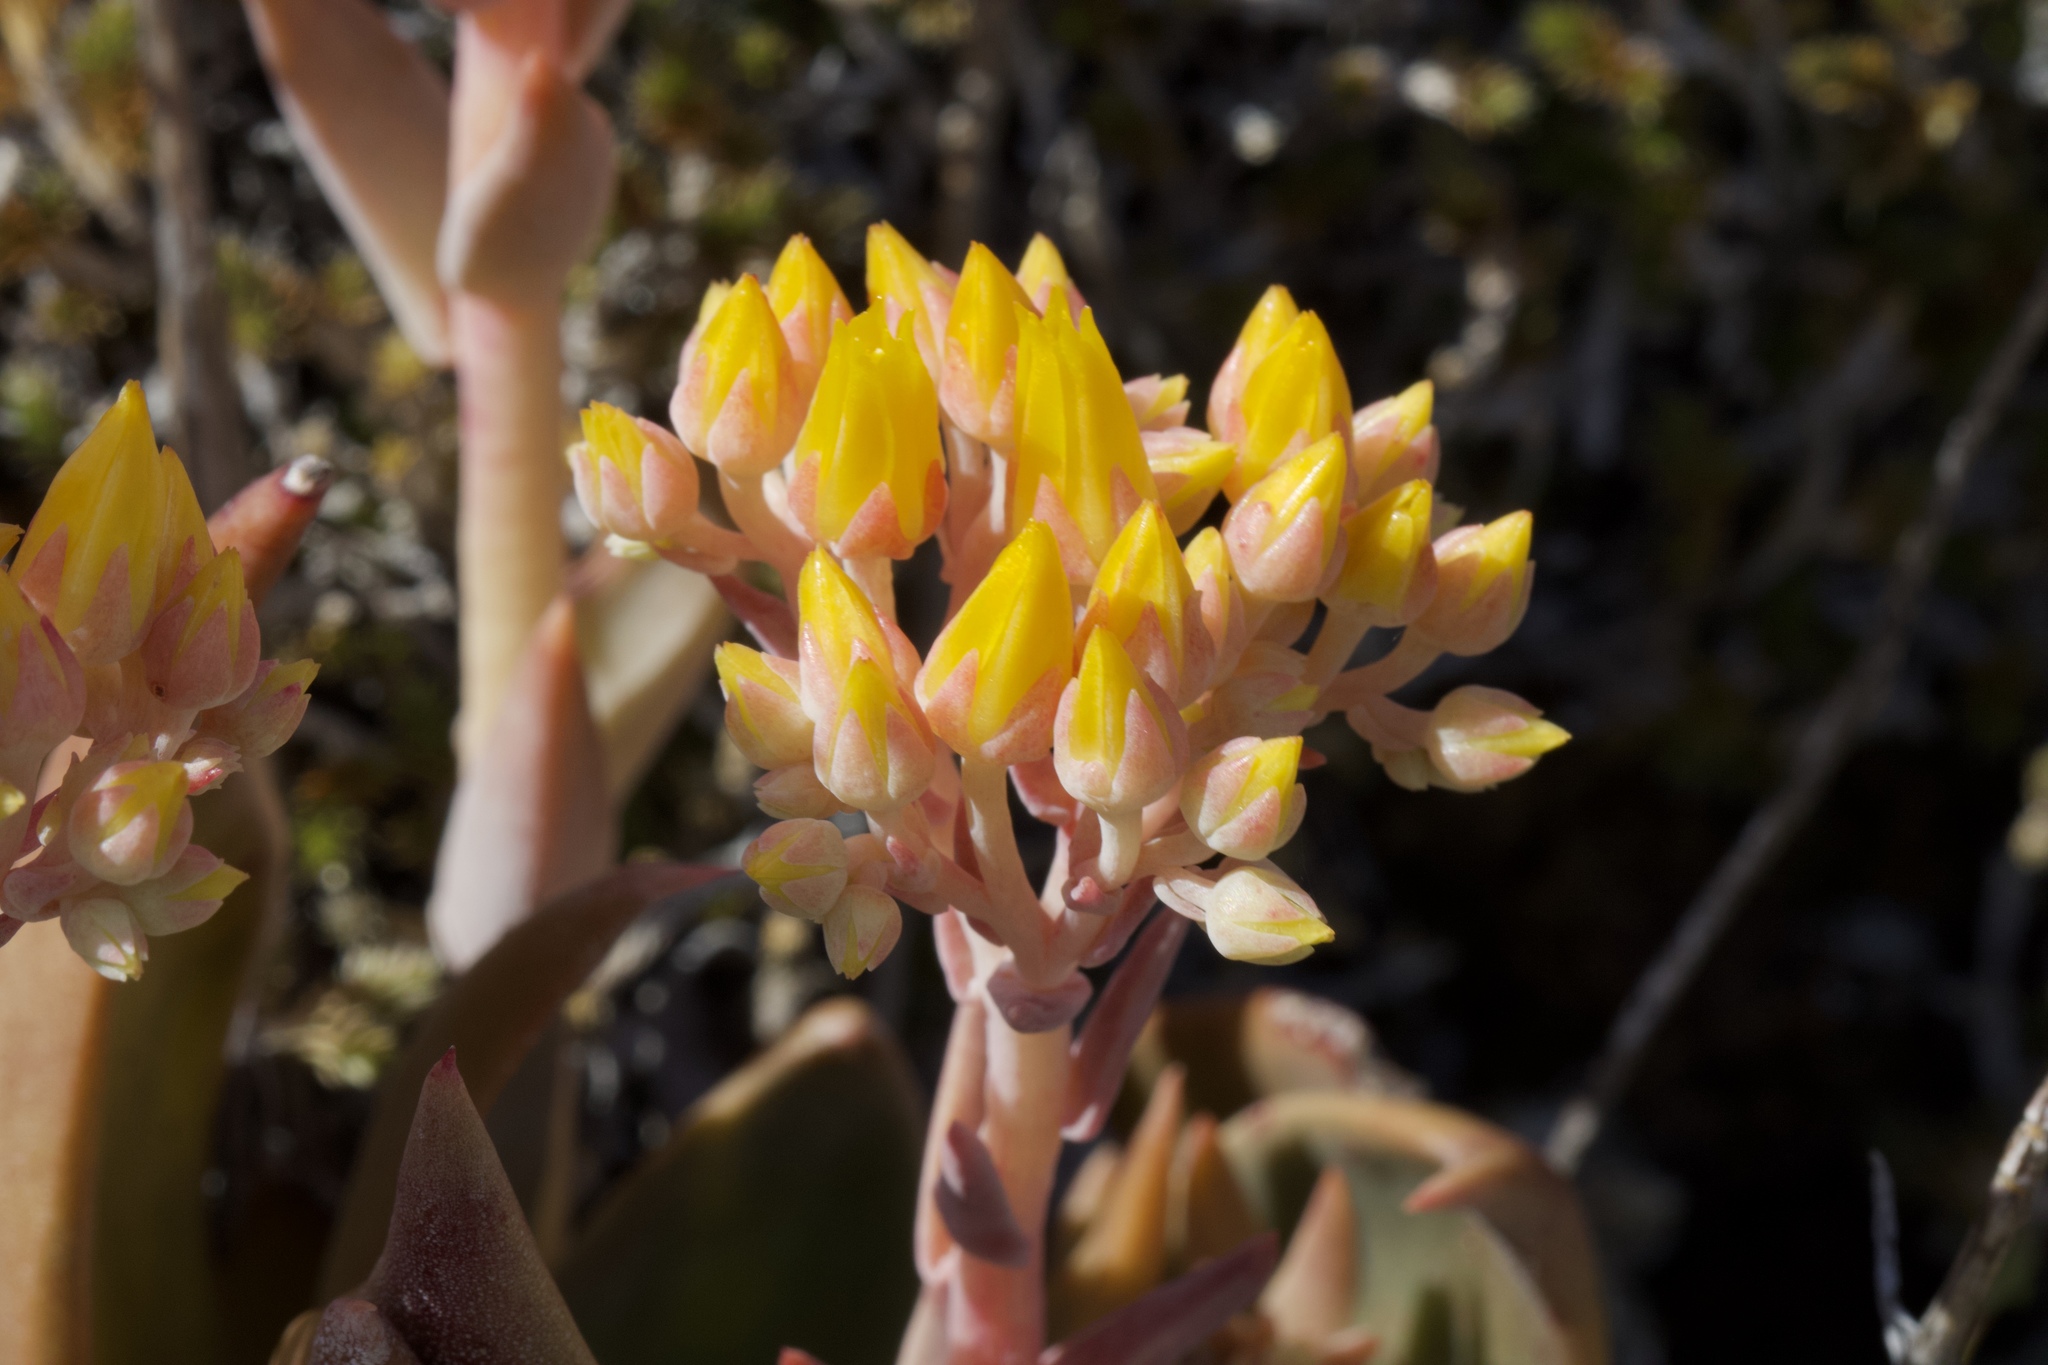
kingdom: Plantae
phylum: Tracheophyta
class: Magnoliopsida
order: Saxifragales
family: Crassulaceae
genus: Dudleya
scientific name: Dudleya cymosa
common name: Canyon dudleya
